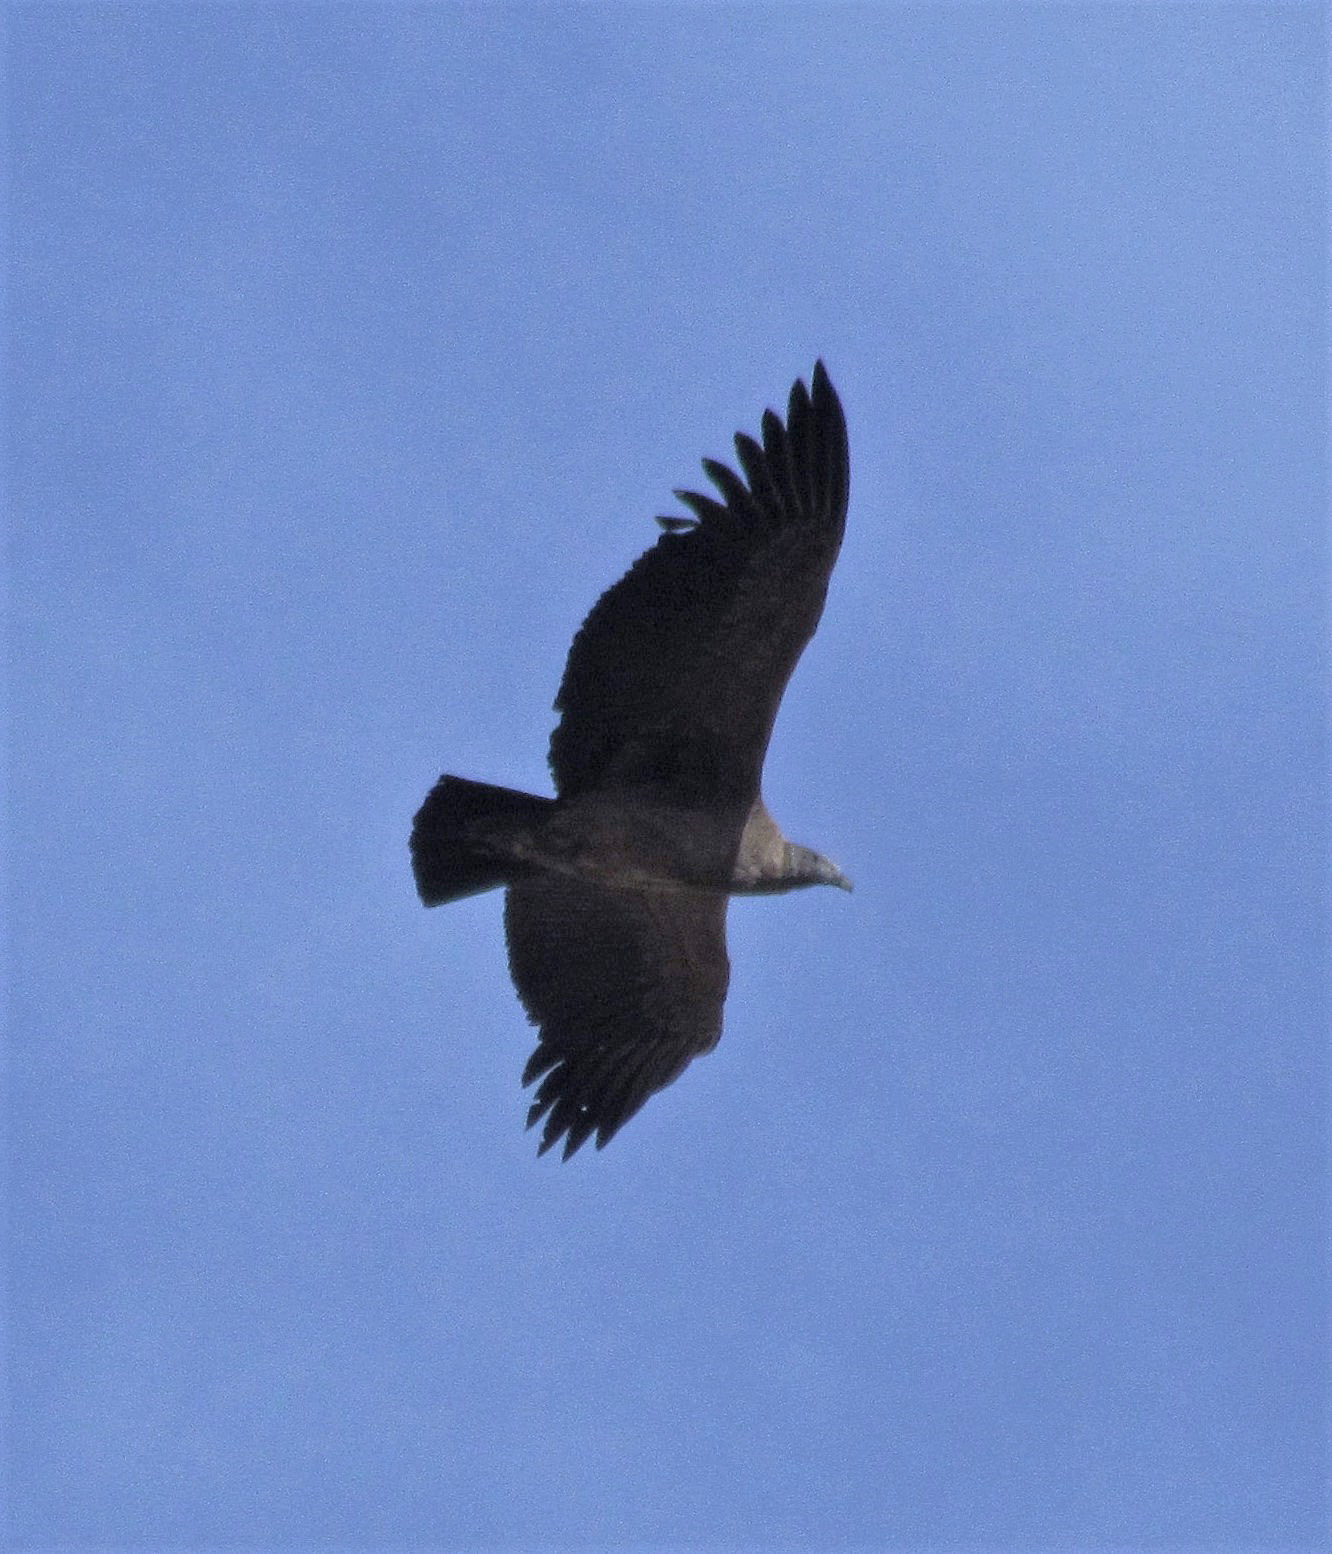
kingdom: Animalia
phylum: Chordata
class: Aves
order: Accipitriformes
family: Cathartidae
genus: Vultur
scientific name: Vultur gryphus
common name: Andean condor
